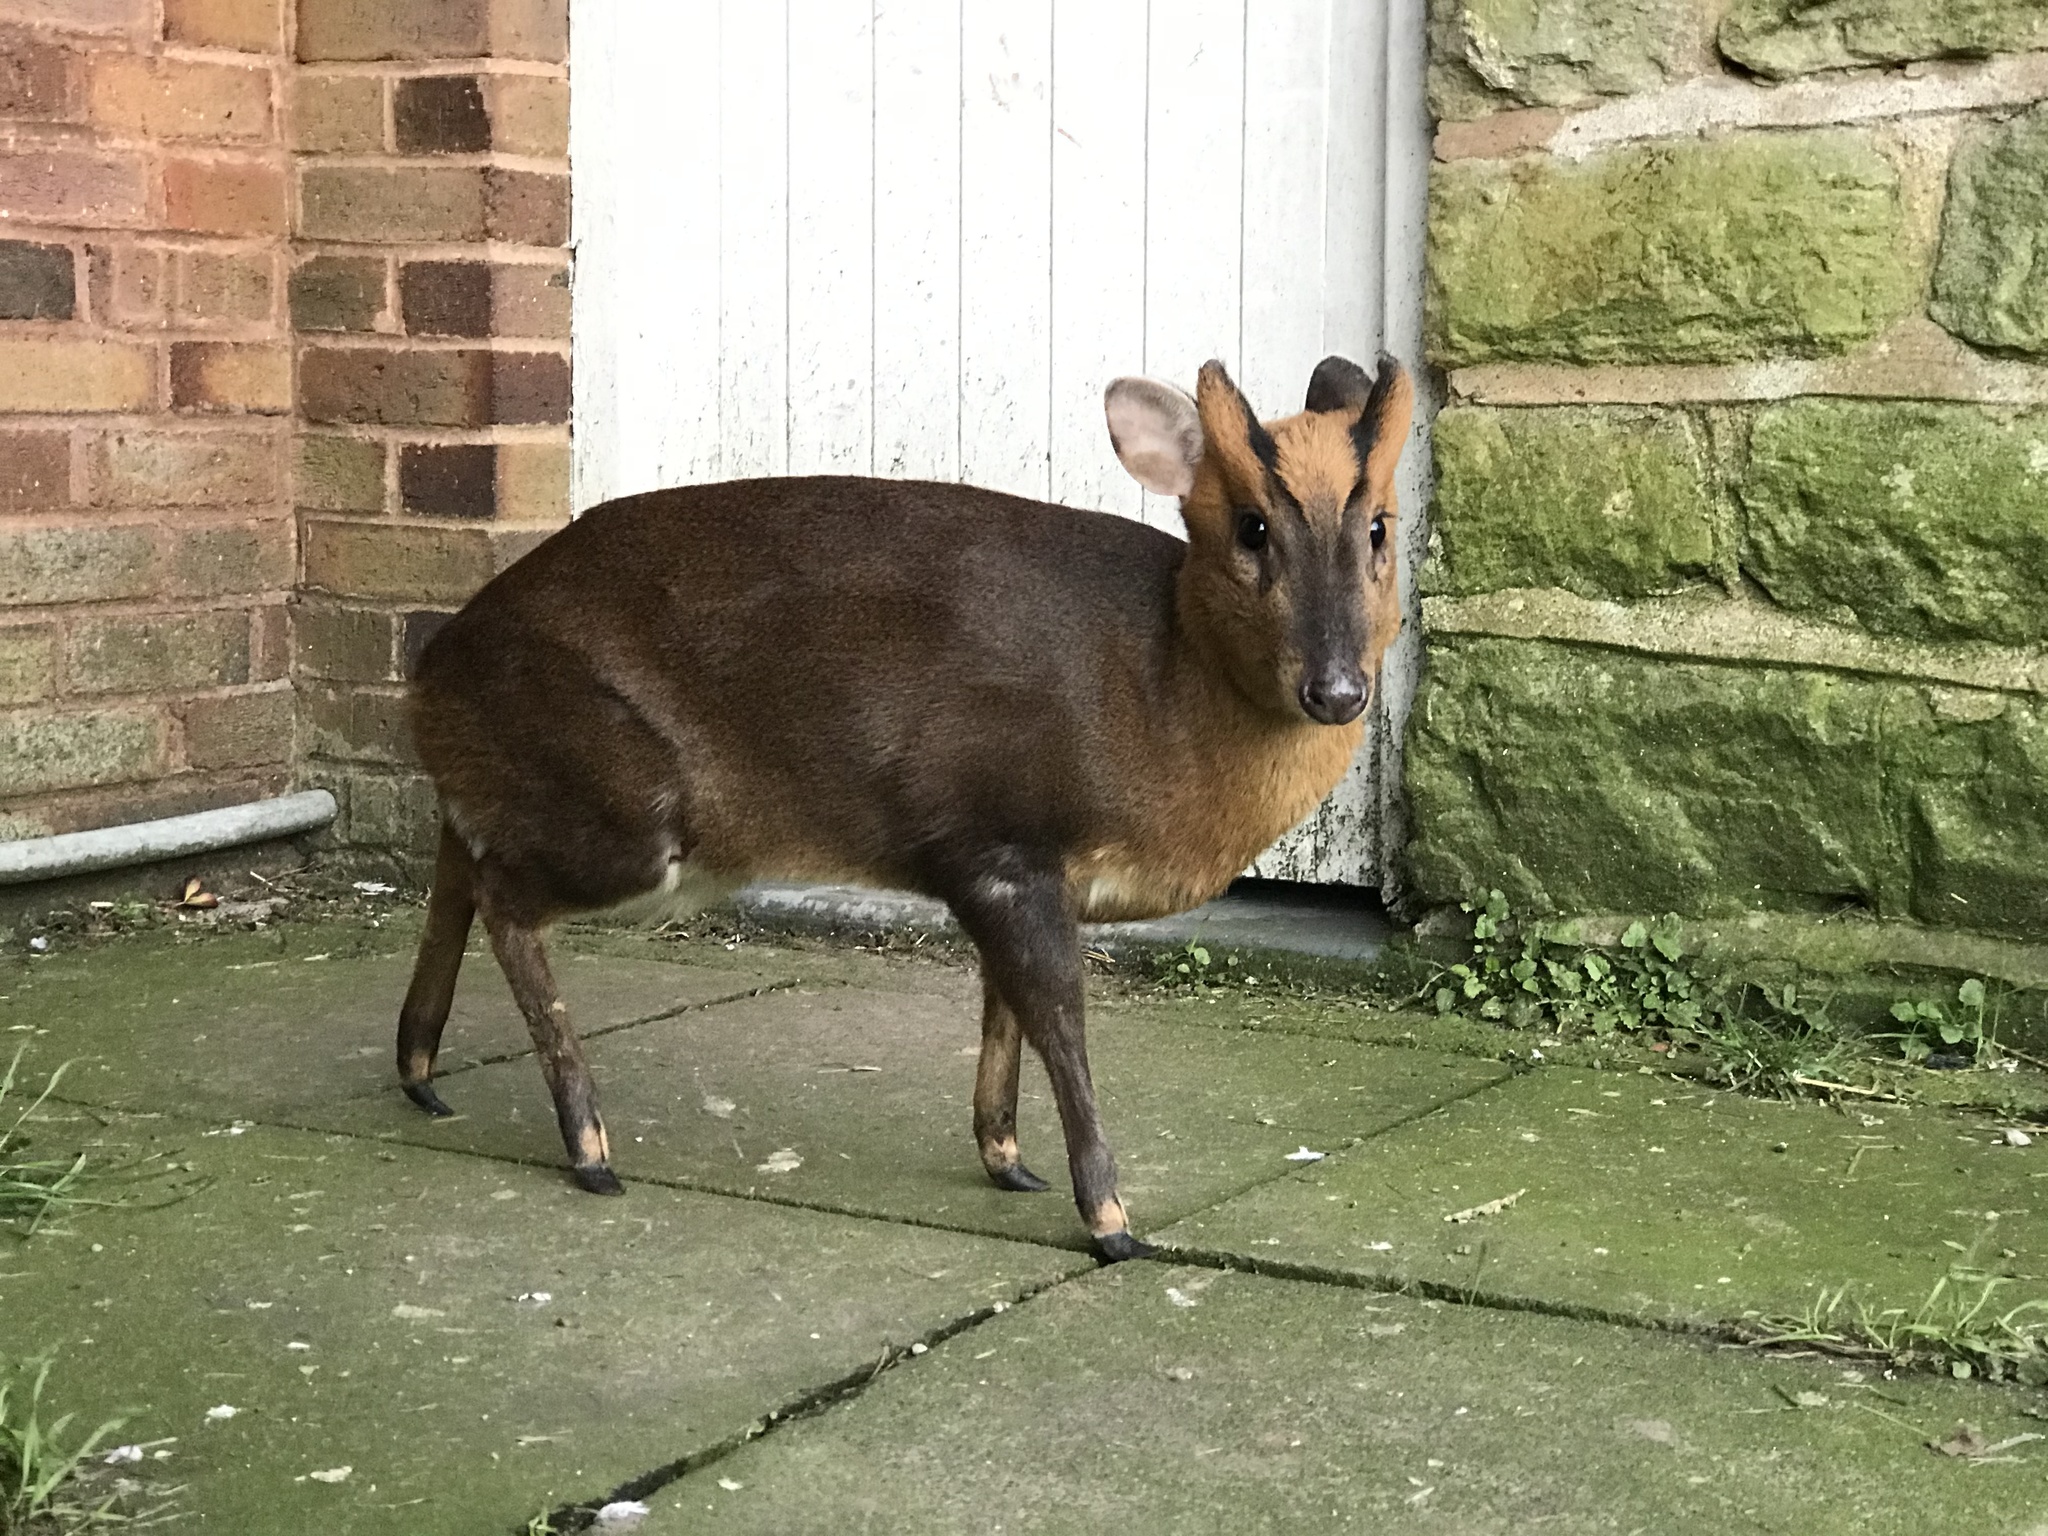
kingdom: Animalia
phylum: Chordata
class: Mammalia
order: Artiodactyla
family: Cervidae
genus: Muntiacus
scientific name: Muntiacus reevesi
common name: Reeves' muntjac
